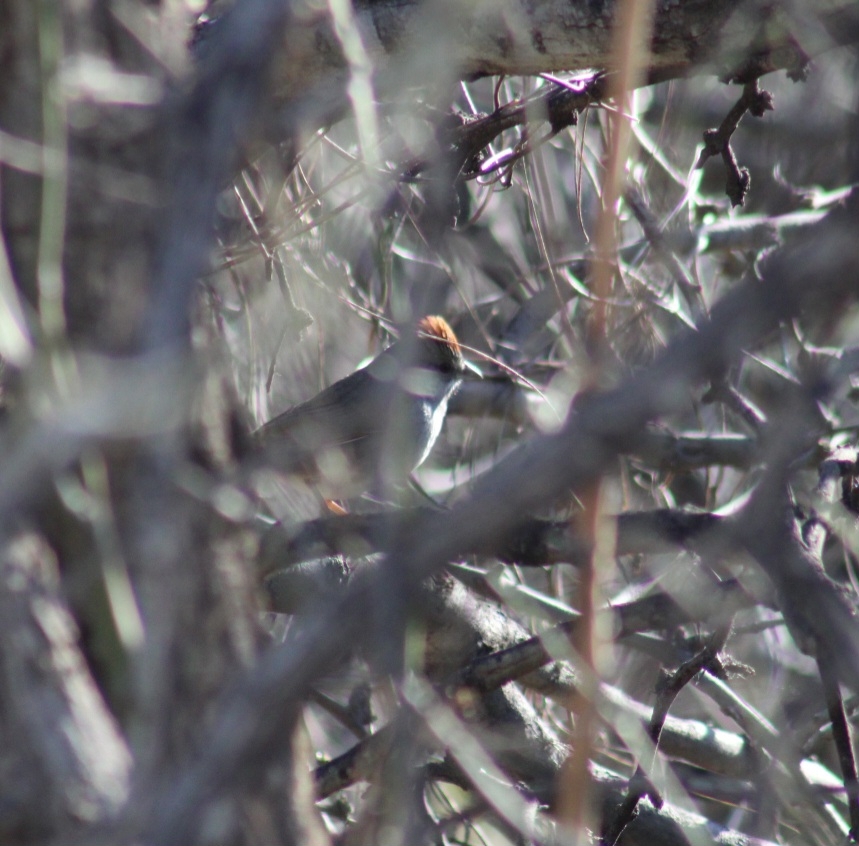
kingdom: Animalia
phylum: Chordata
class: Aves
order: Passeriformes
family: Passerellidae
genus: Pipilo
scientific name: Pipilo chlorurus
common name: Green-tailed towhee
